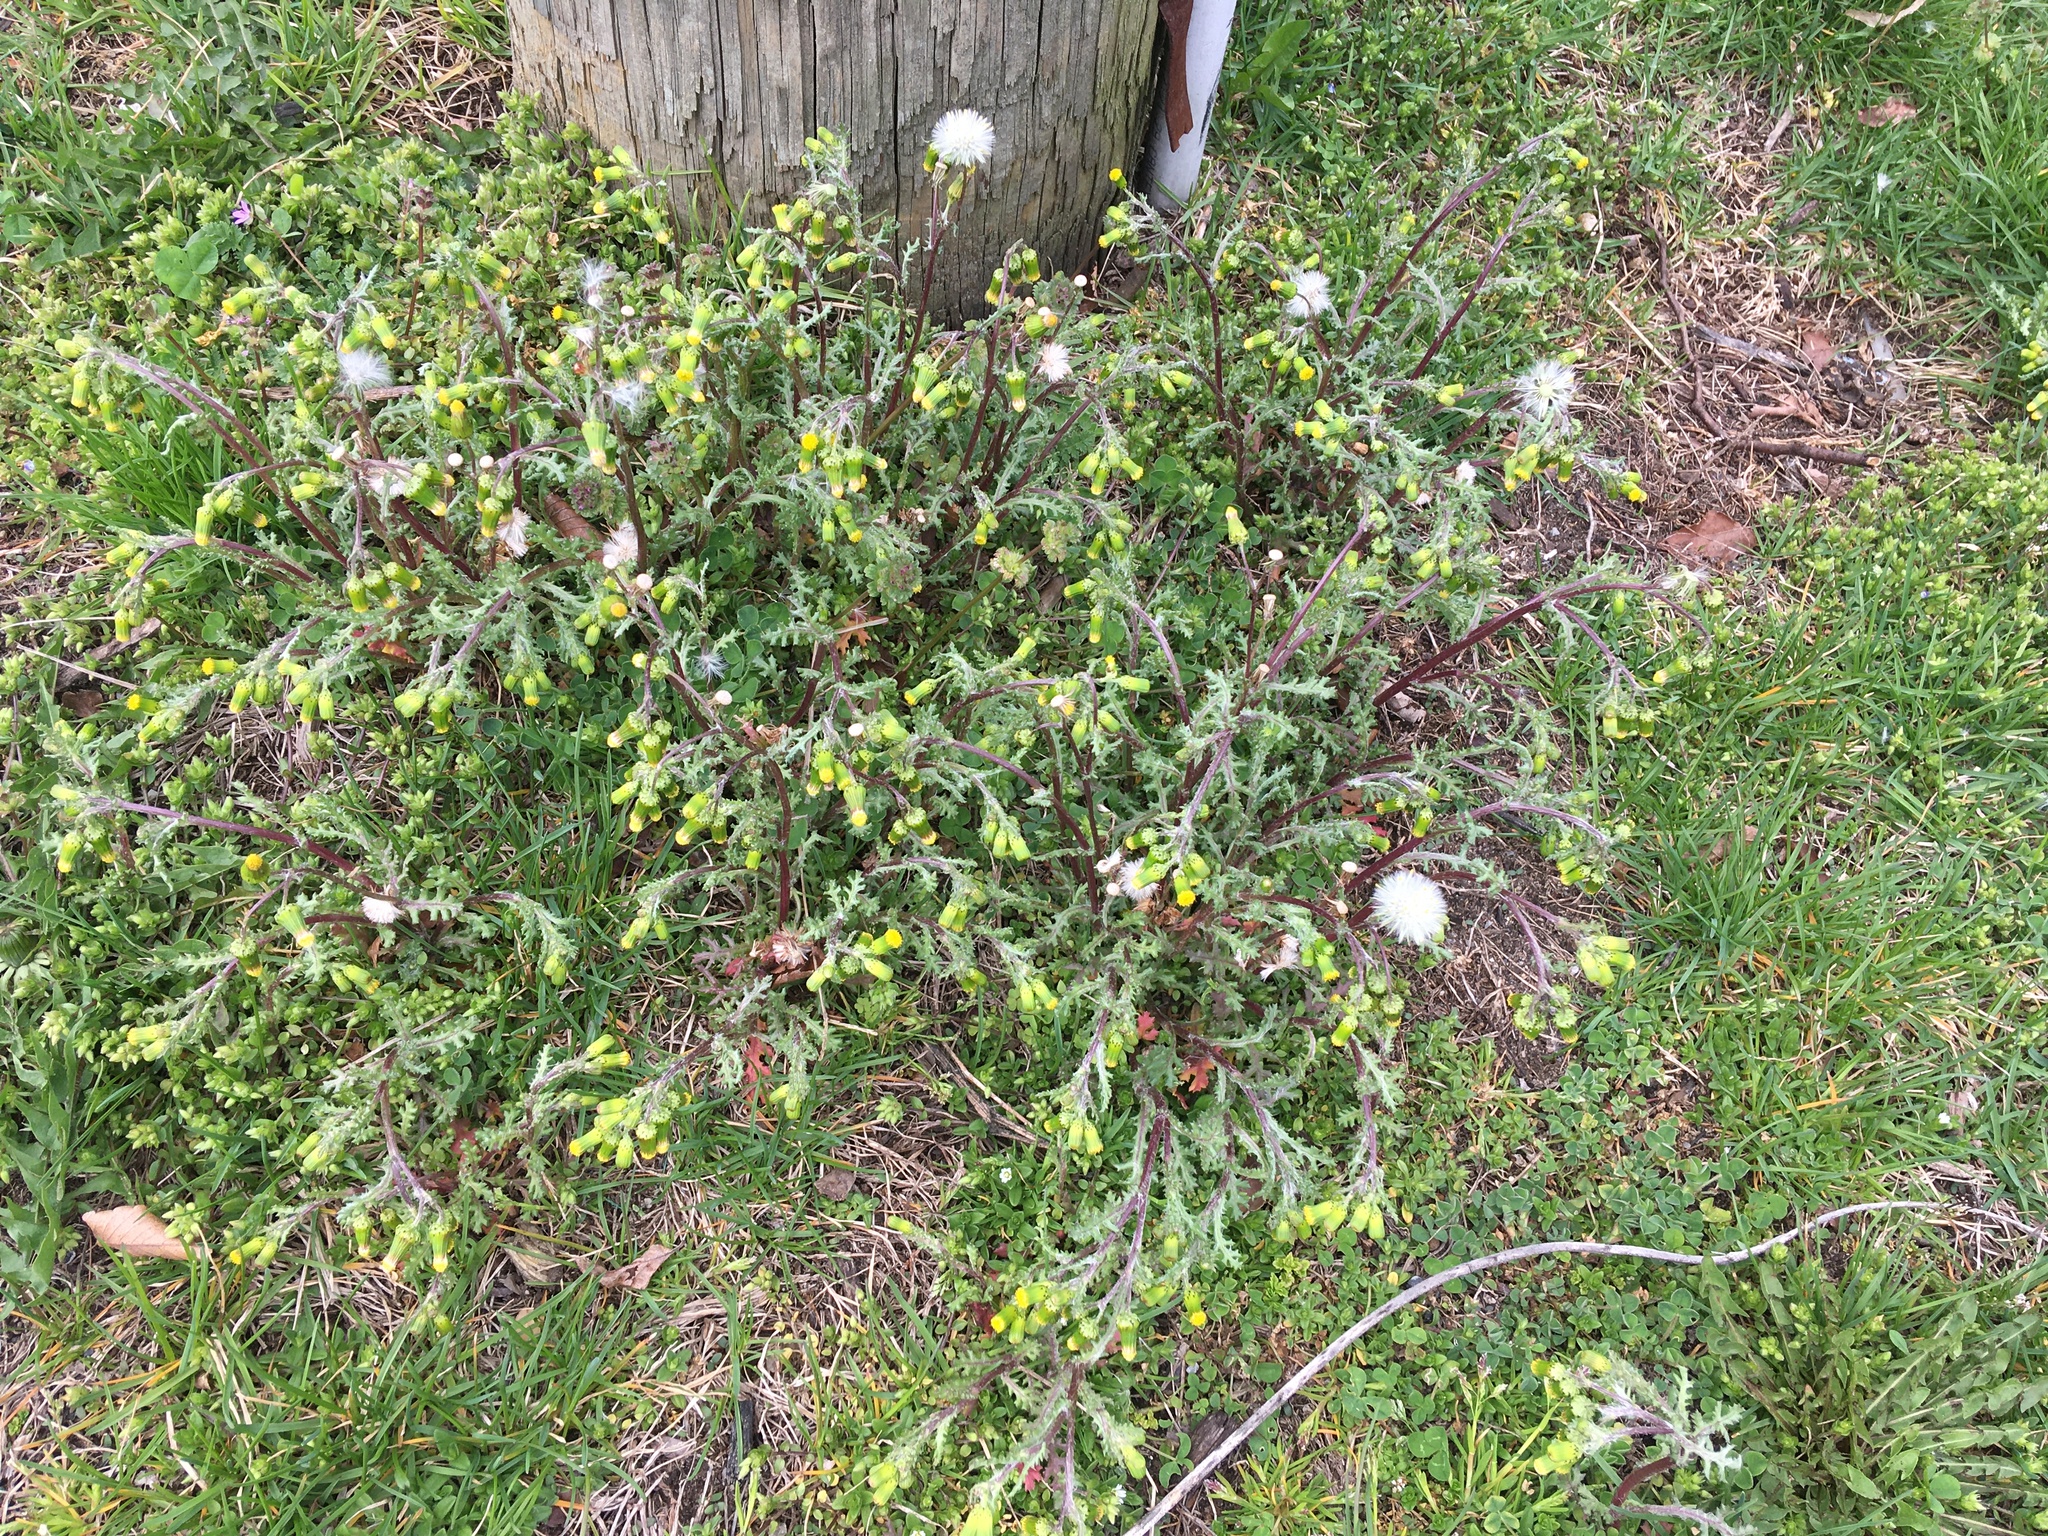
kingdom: Plantae
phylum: Tracheophyta
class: Magnoliopsida
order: Asterales
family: Asteraceae
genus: Senecio
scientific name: Senecio vulgaris
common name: Old-man-in-the-spring
